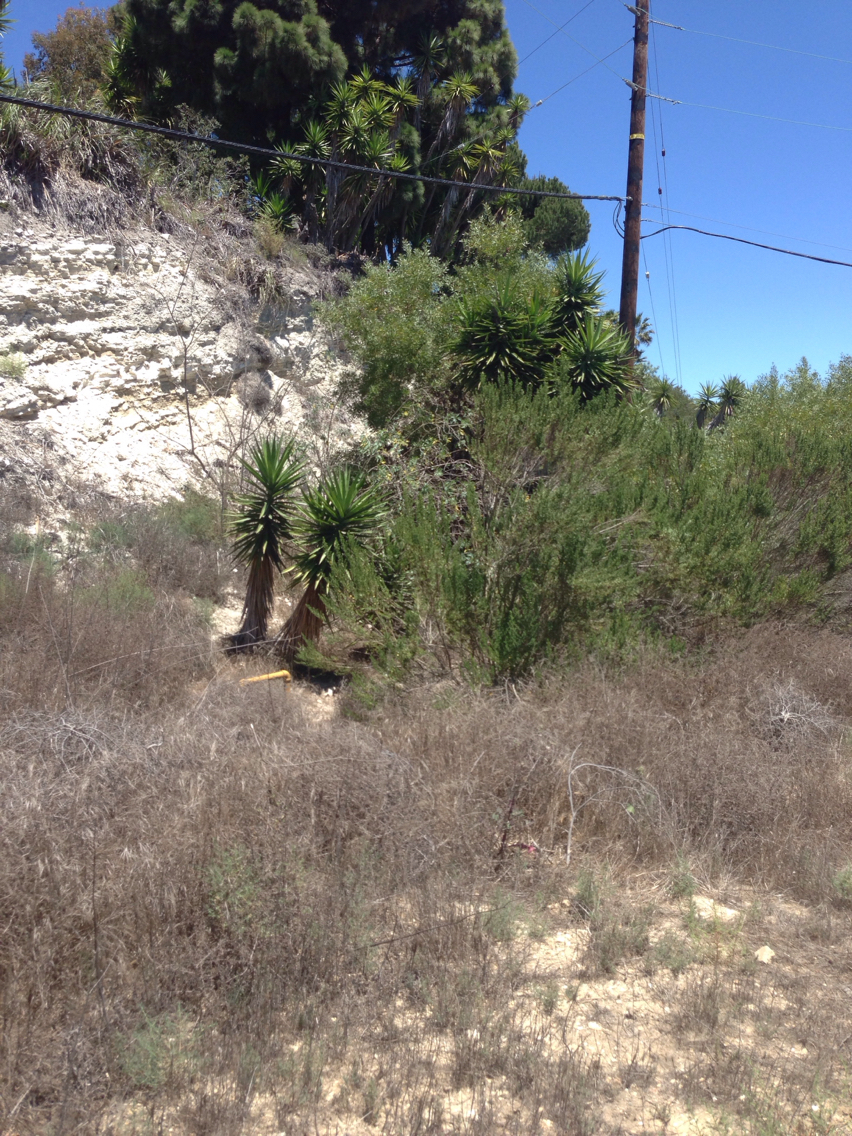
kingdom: Plantae
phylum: Tracheophyta
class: Liliopsida
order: Asparagales
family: Asparagaceae
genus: Yucca
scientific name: Yucca gigantea
